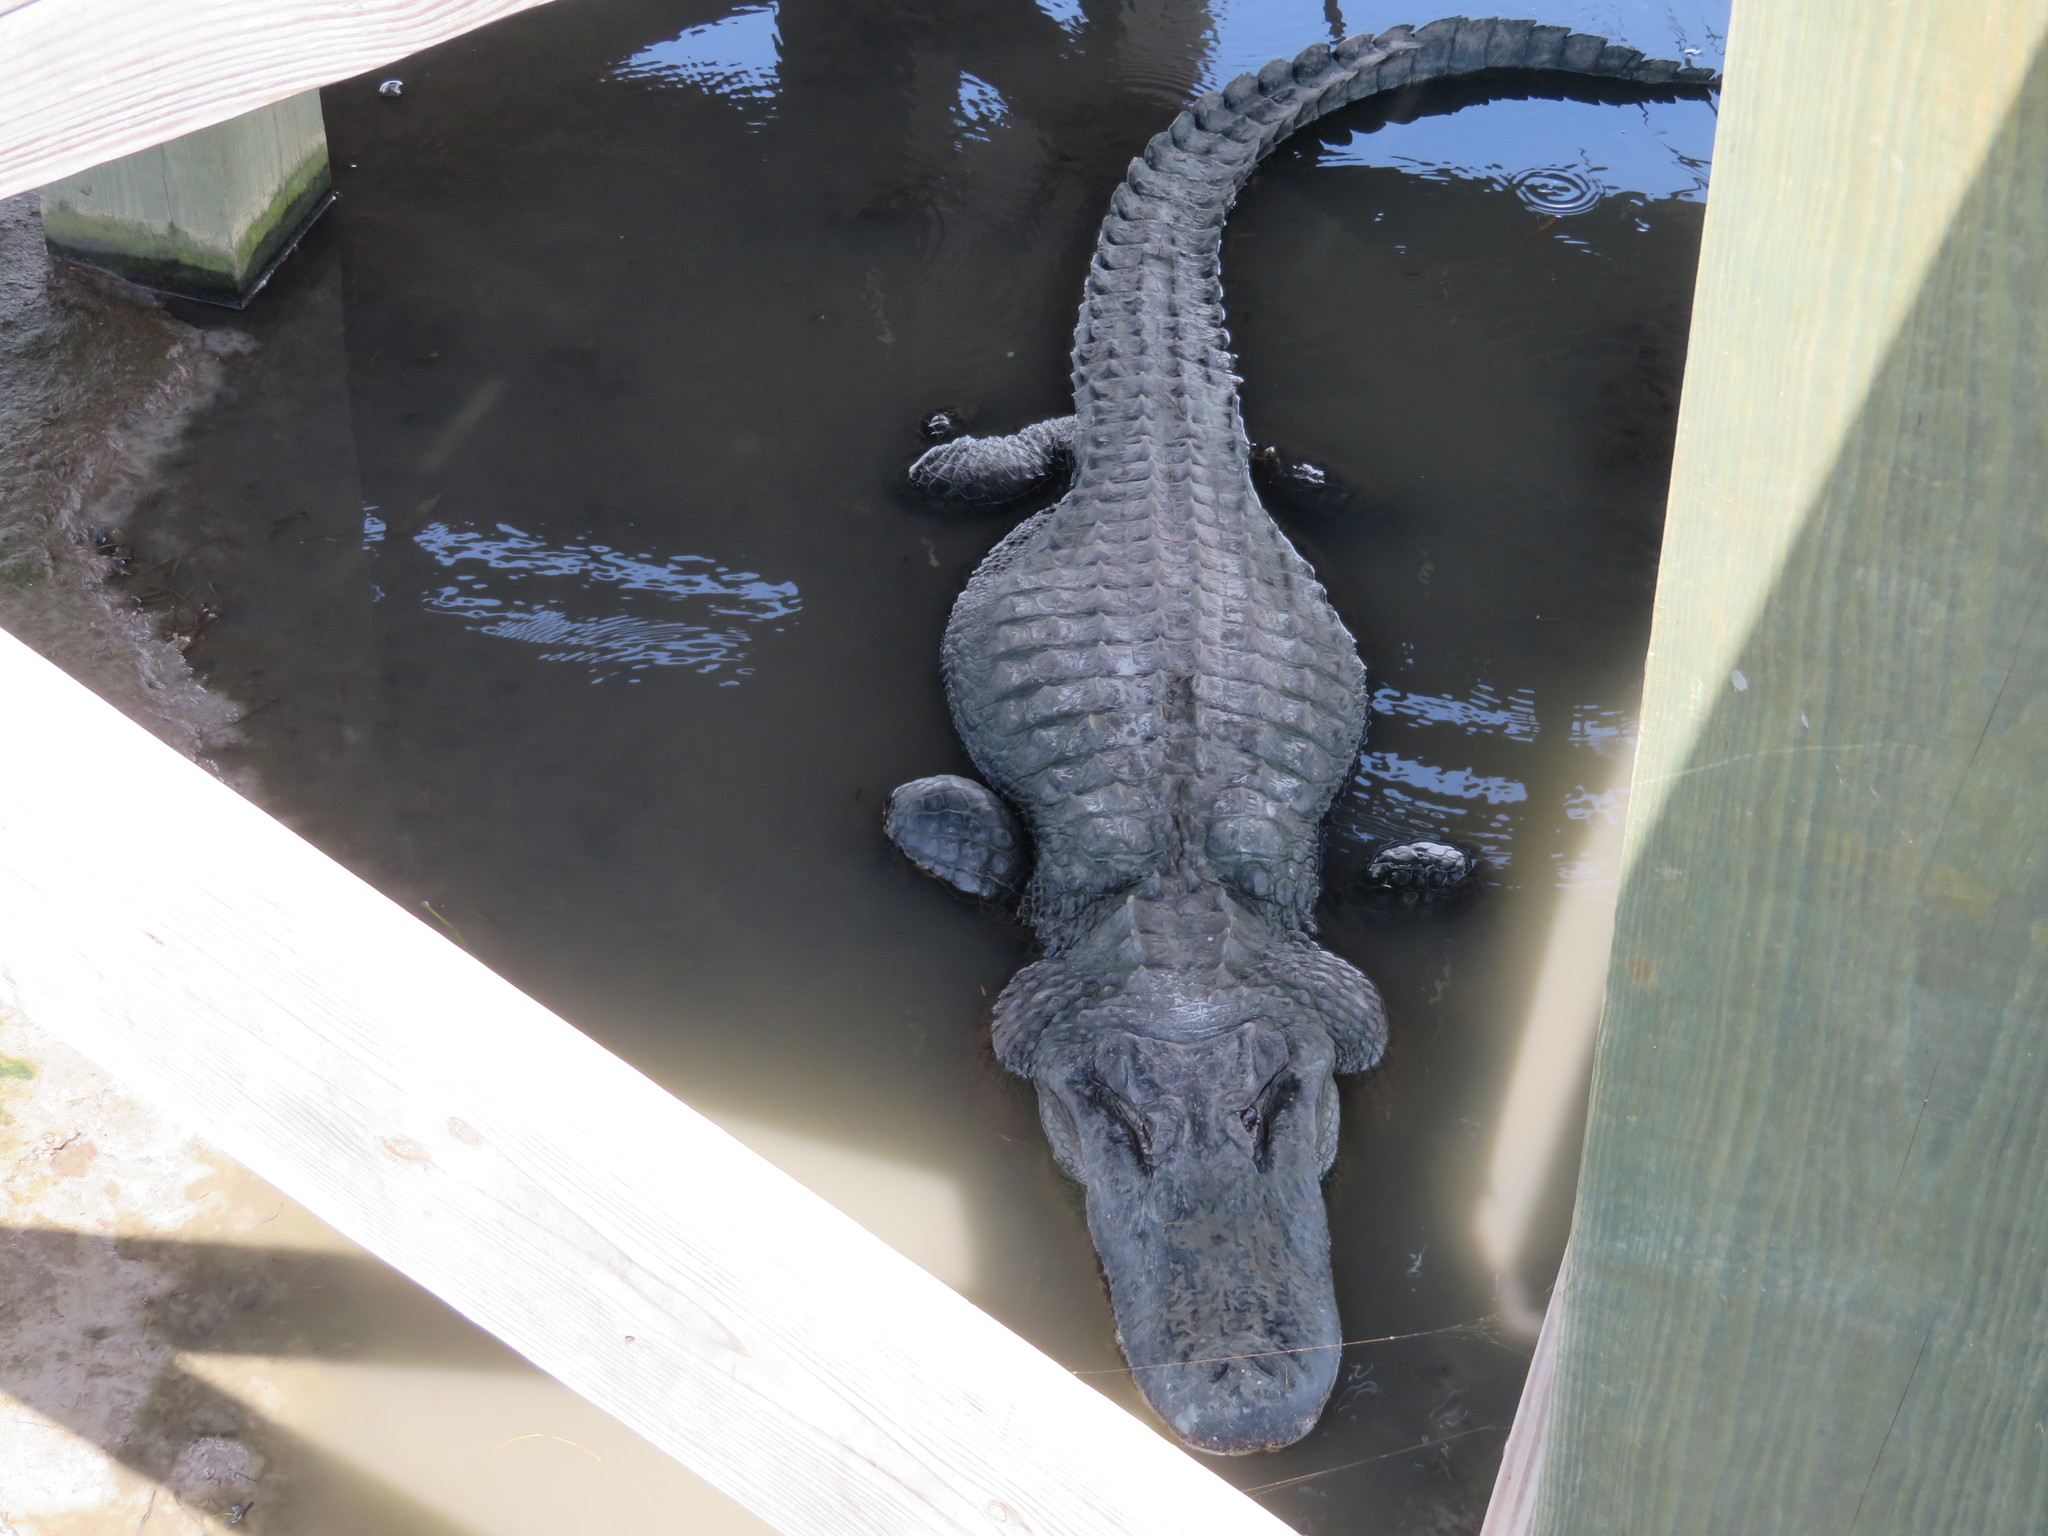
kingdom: Animalia
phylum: Chordata
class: Crocodylia
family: Alligatoridae
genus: Alligator
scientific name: Alligator mississippiensis
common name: American alligator
